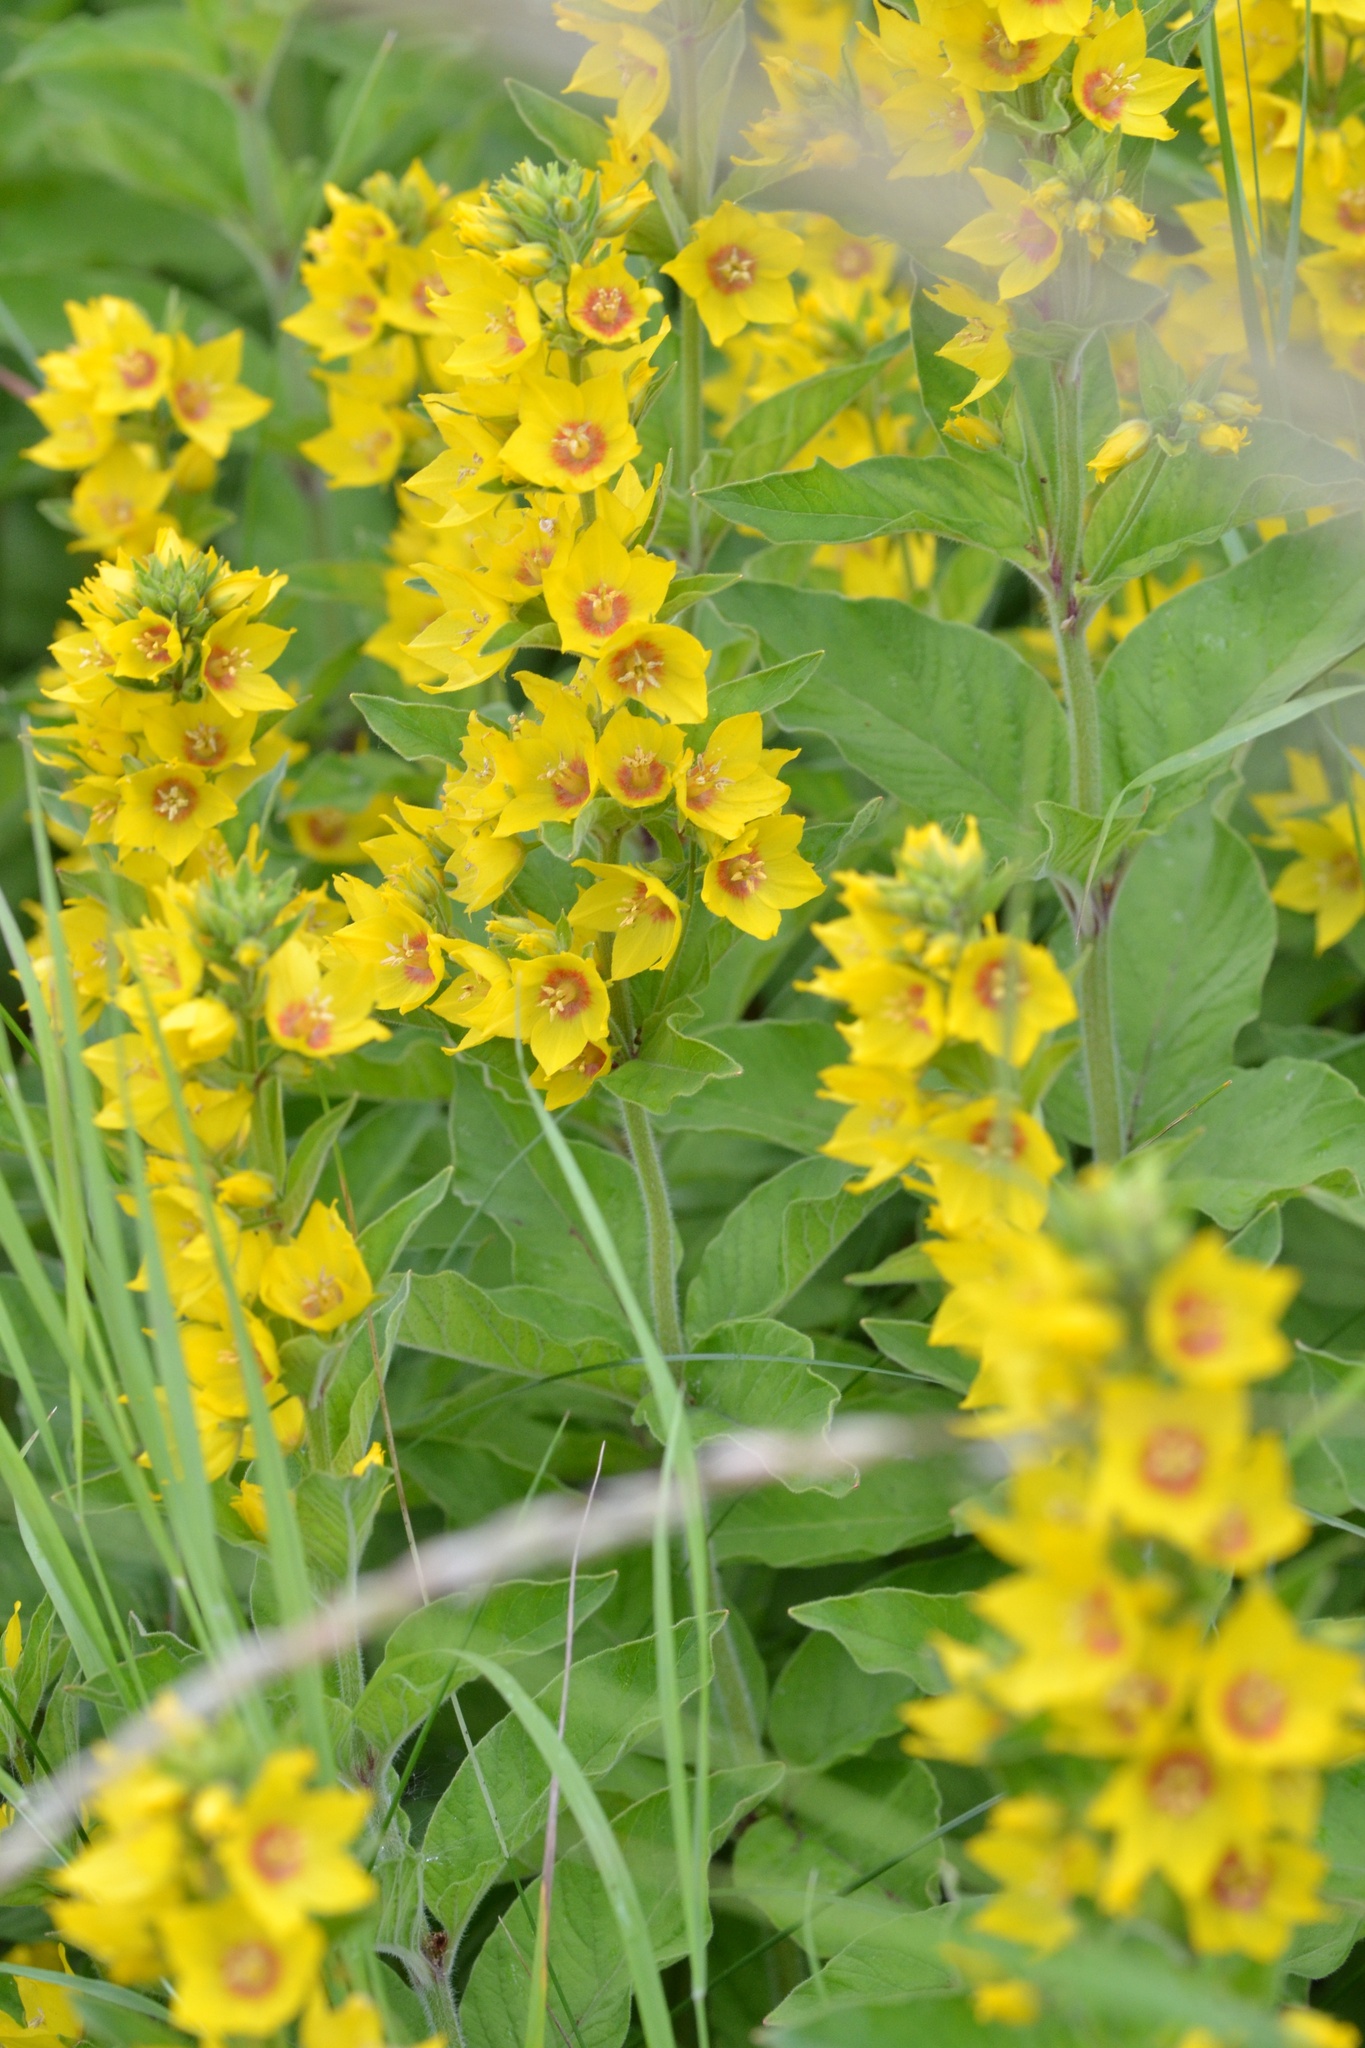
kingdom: Plantae
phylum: Tracheophyta
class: Magnoliopsida
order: Ericales
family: Primulaceae
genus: Lysimachia
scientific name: Lysimachia punctata
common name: Dotted loosestrife
